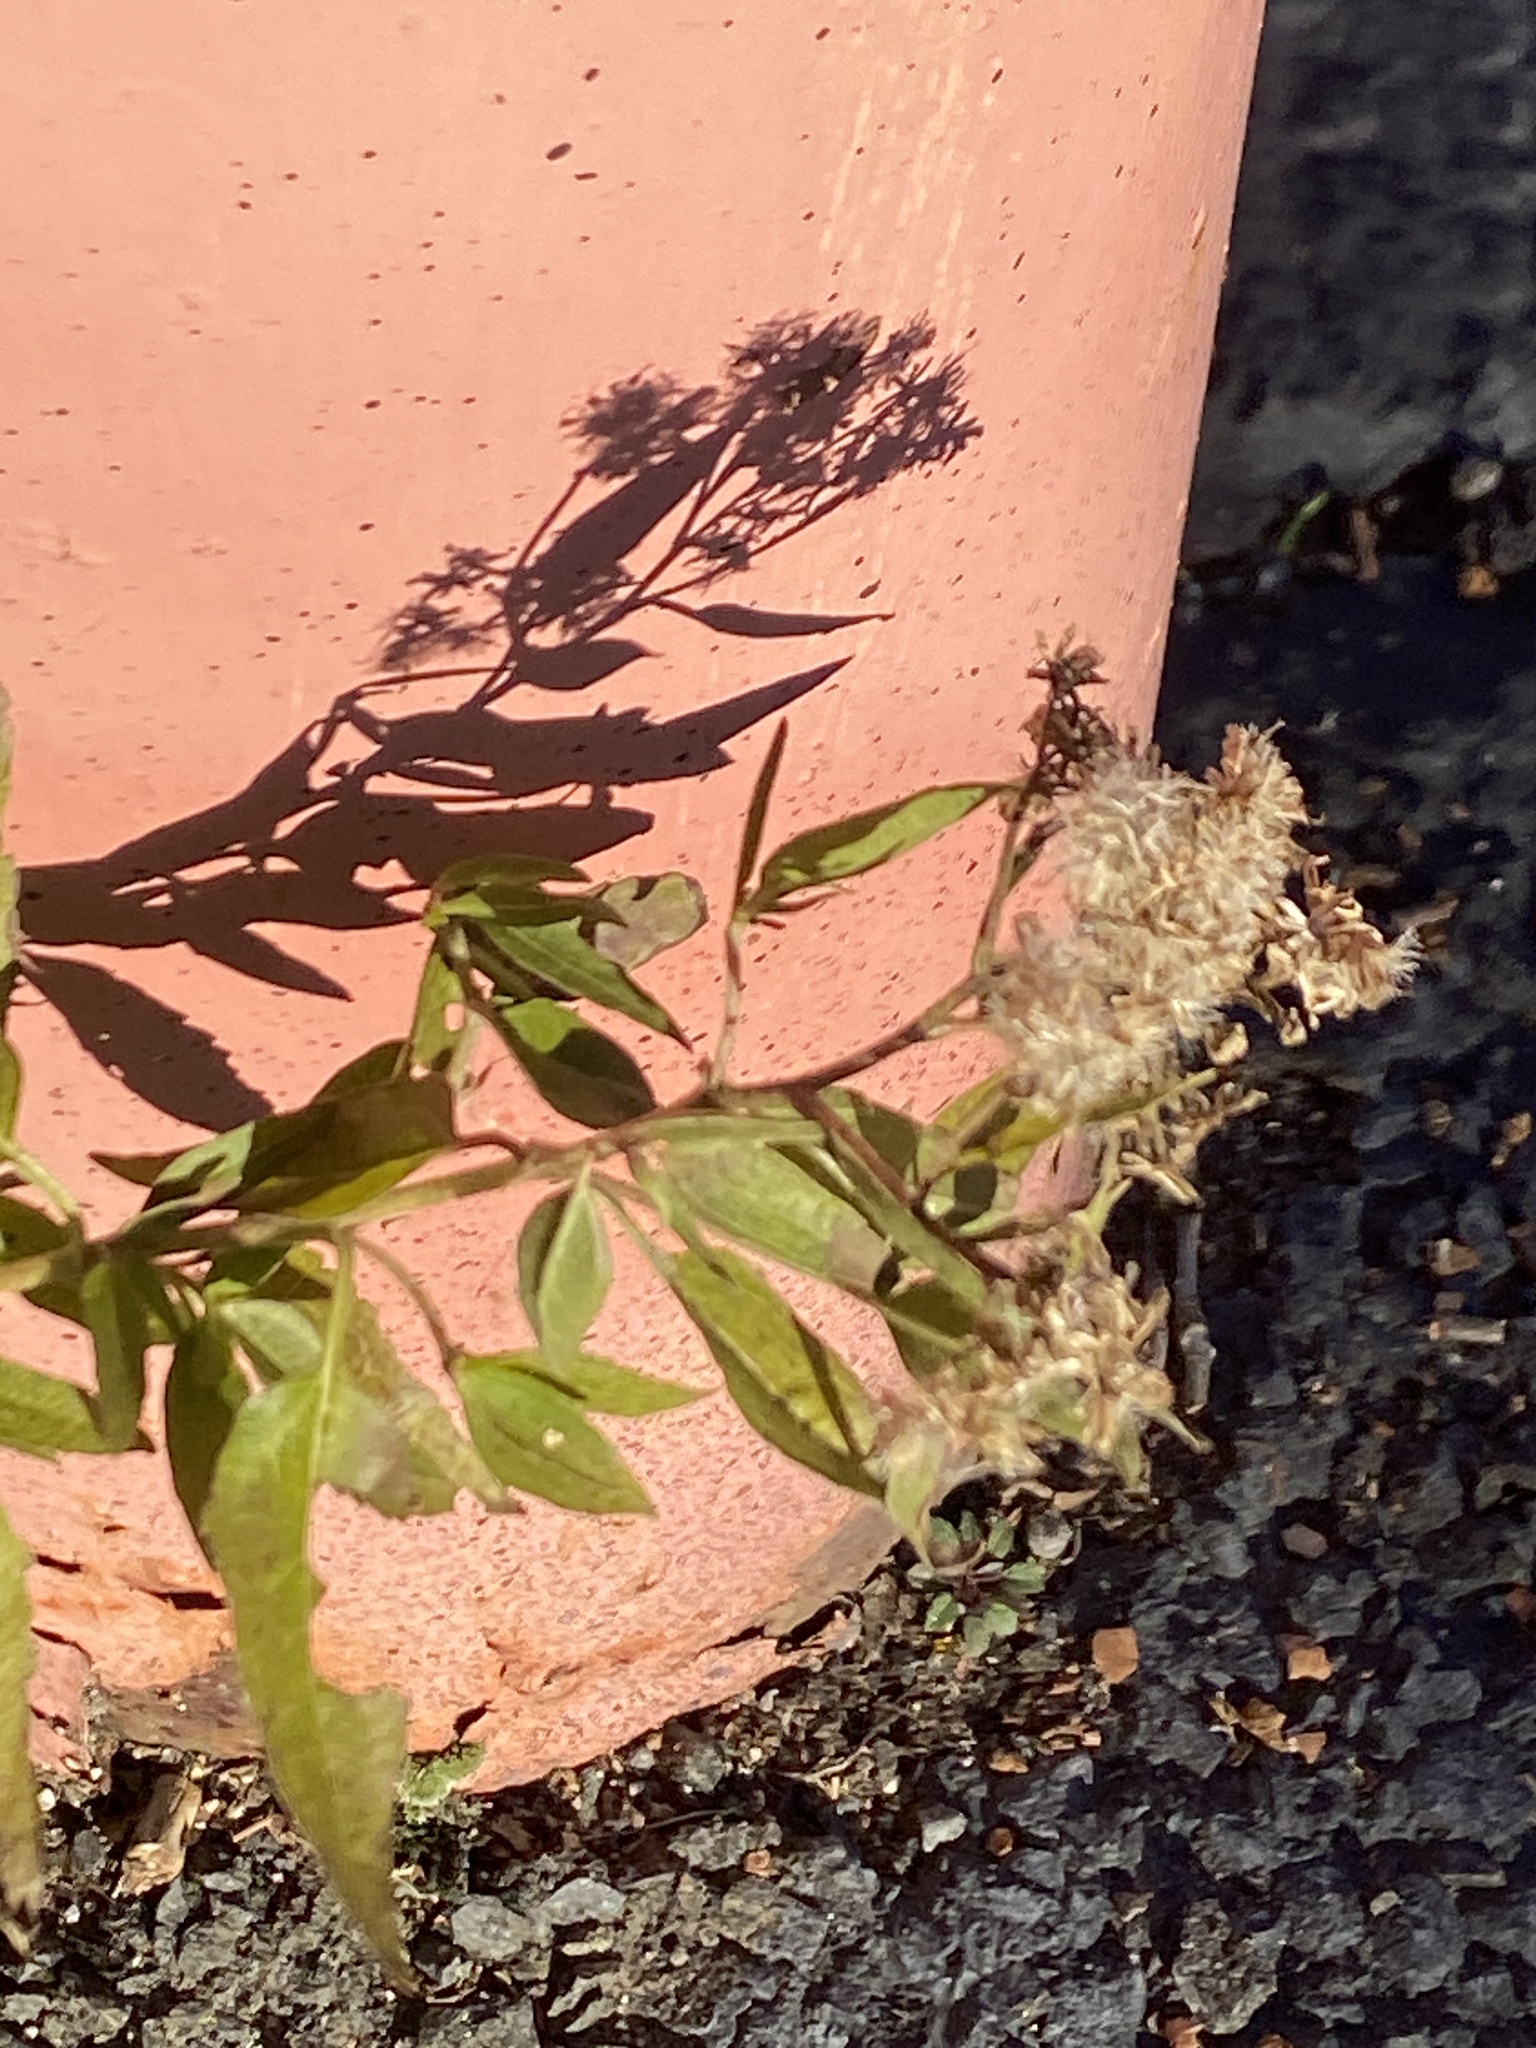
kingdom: Plantae
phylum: Tracheophyta
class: Magnoliopsida
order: Asterales
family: Asteraceae
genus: Eupatorium
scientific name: Eupatorium serotinum
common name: Late boneset
